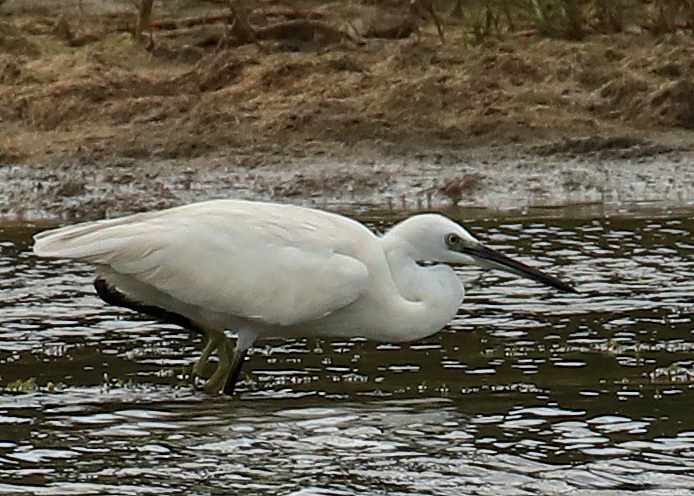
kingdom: Animalia
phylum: Chordata
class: Aves
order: Pelecaniformes
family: Ardeidae
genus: Egretta
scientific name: Egretta garzetta
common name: Little egret
